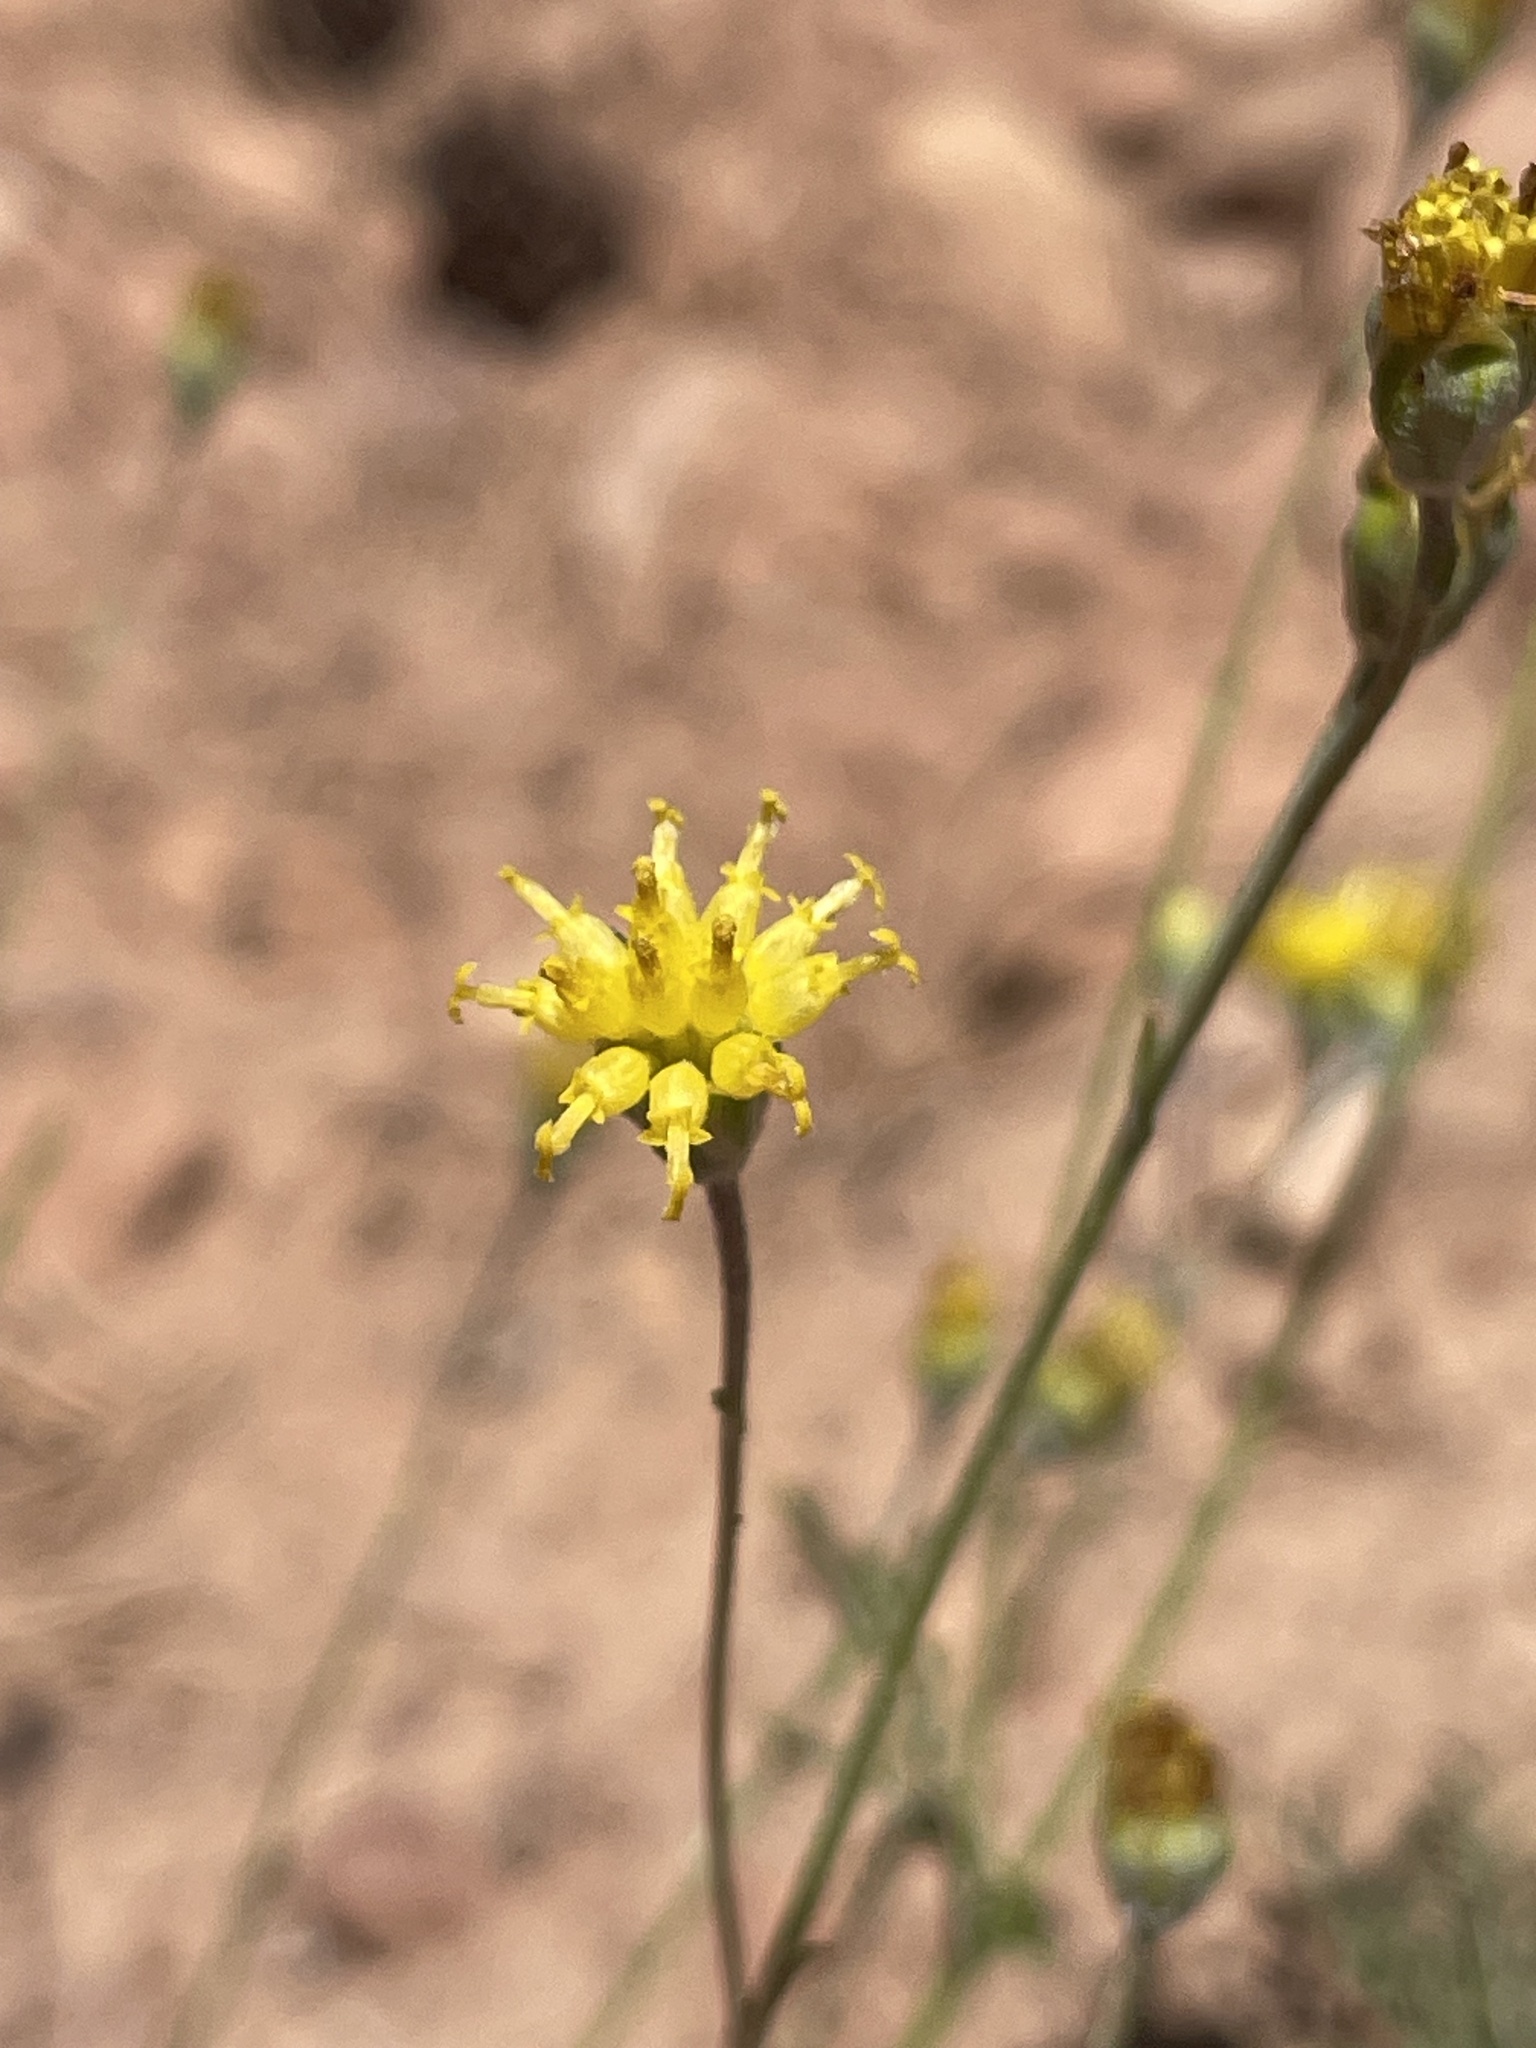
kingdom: Plantae
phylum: Tracheophyta
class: Magnoliopsida
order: Asterales
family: Asteraceae
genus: Hymenopappus
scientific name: Hymenopappus filifolius
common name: Columbia cutleaf
